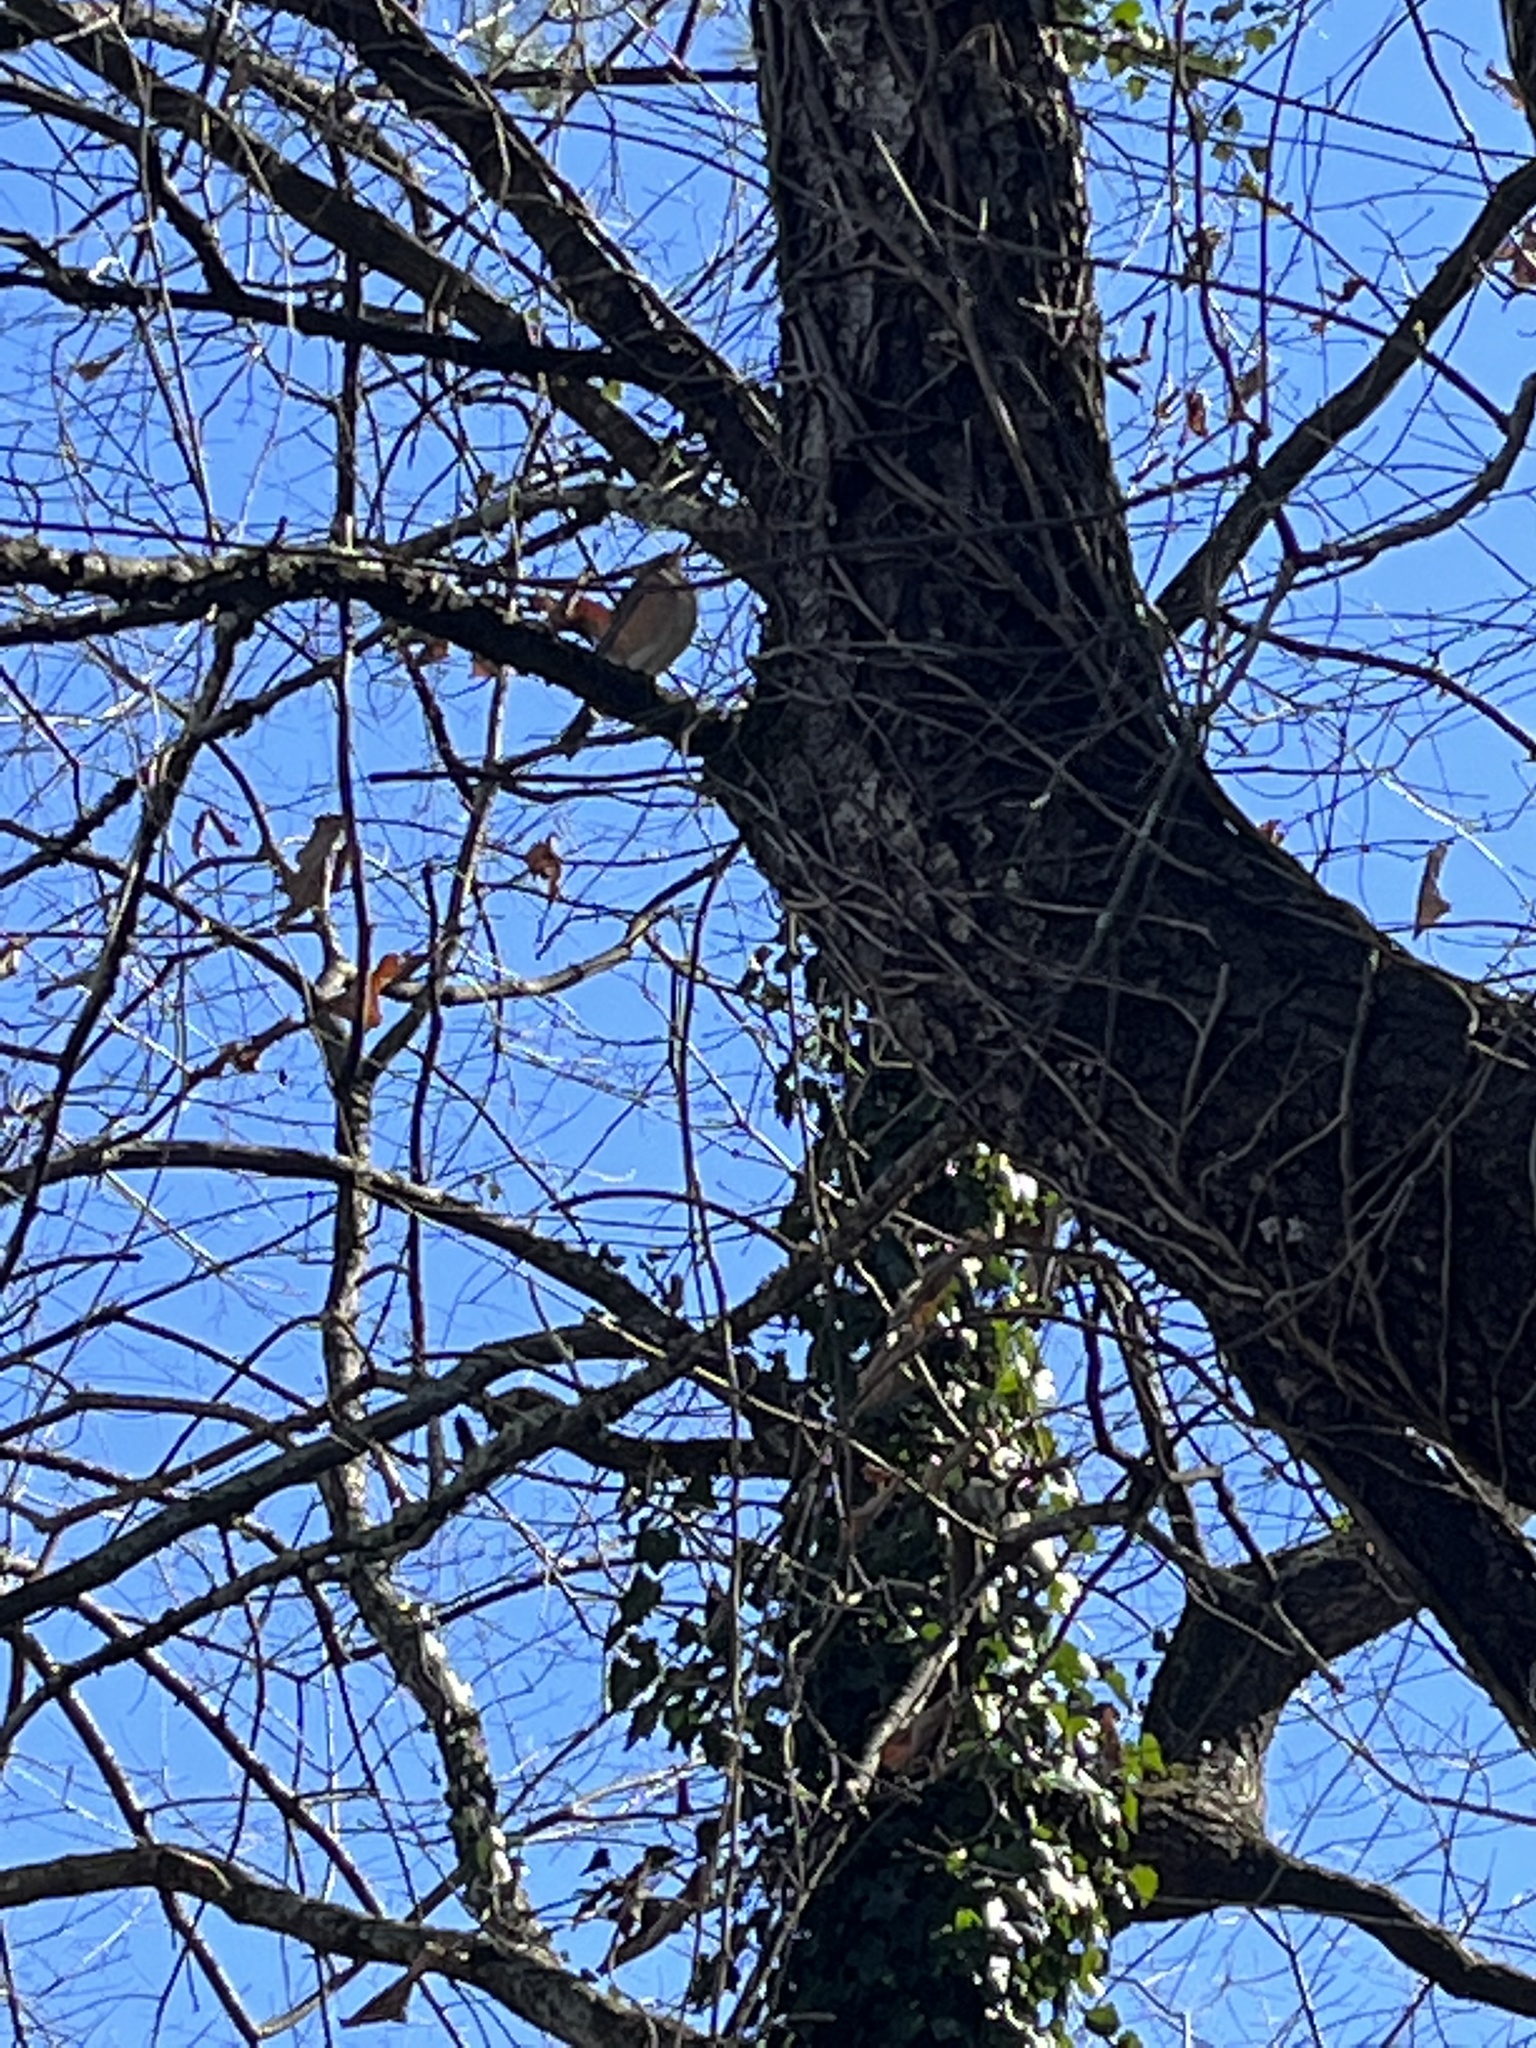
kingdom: Animalia
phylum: Chordata
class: Aves
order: Passeriformes
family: Turdidae
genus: Turdus
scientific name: Turdus migratorius
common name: American robin
